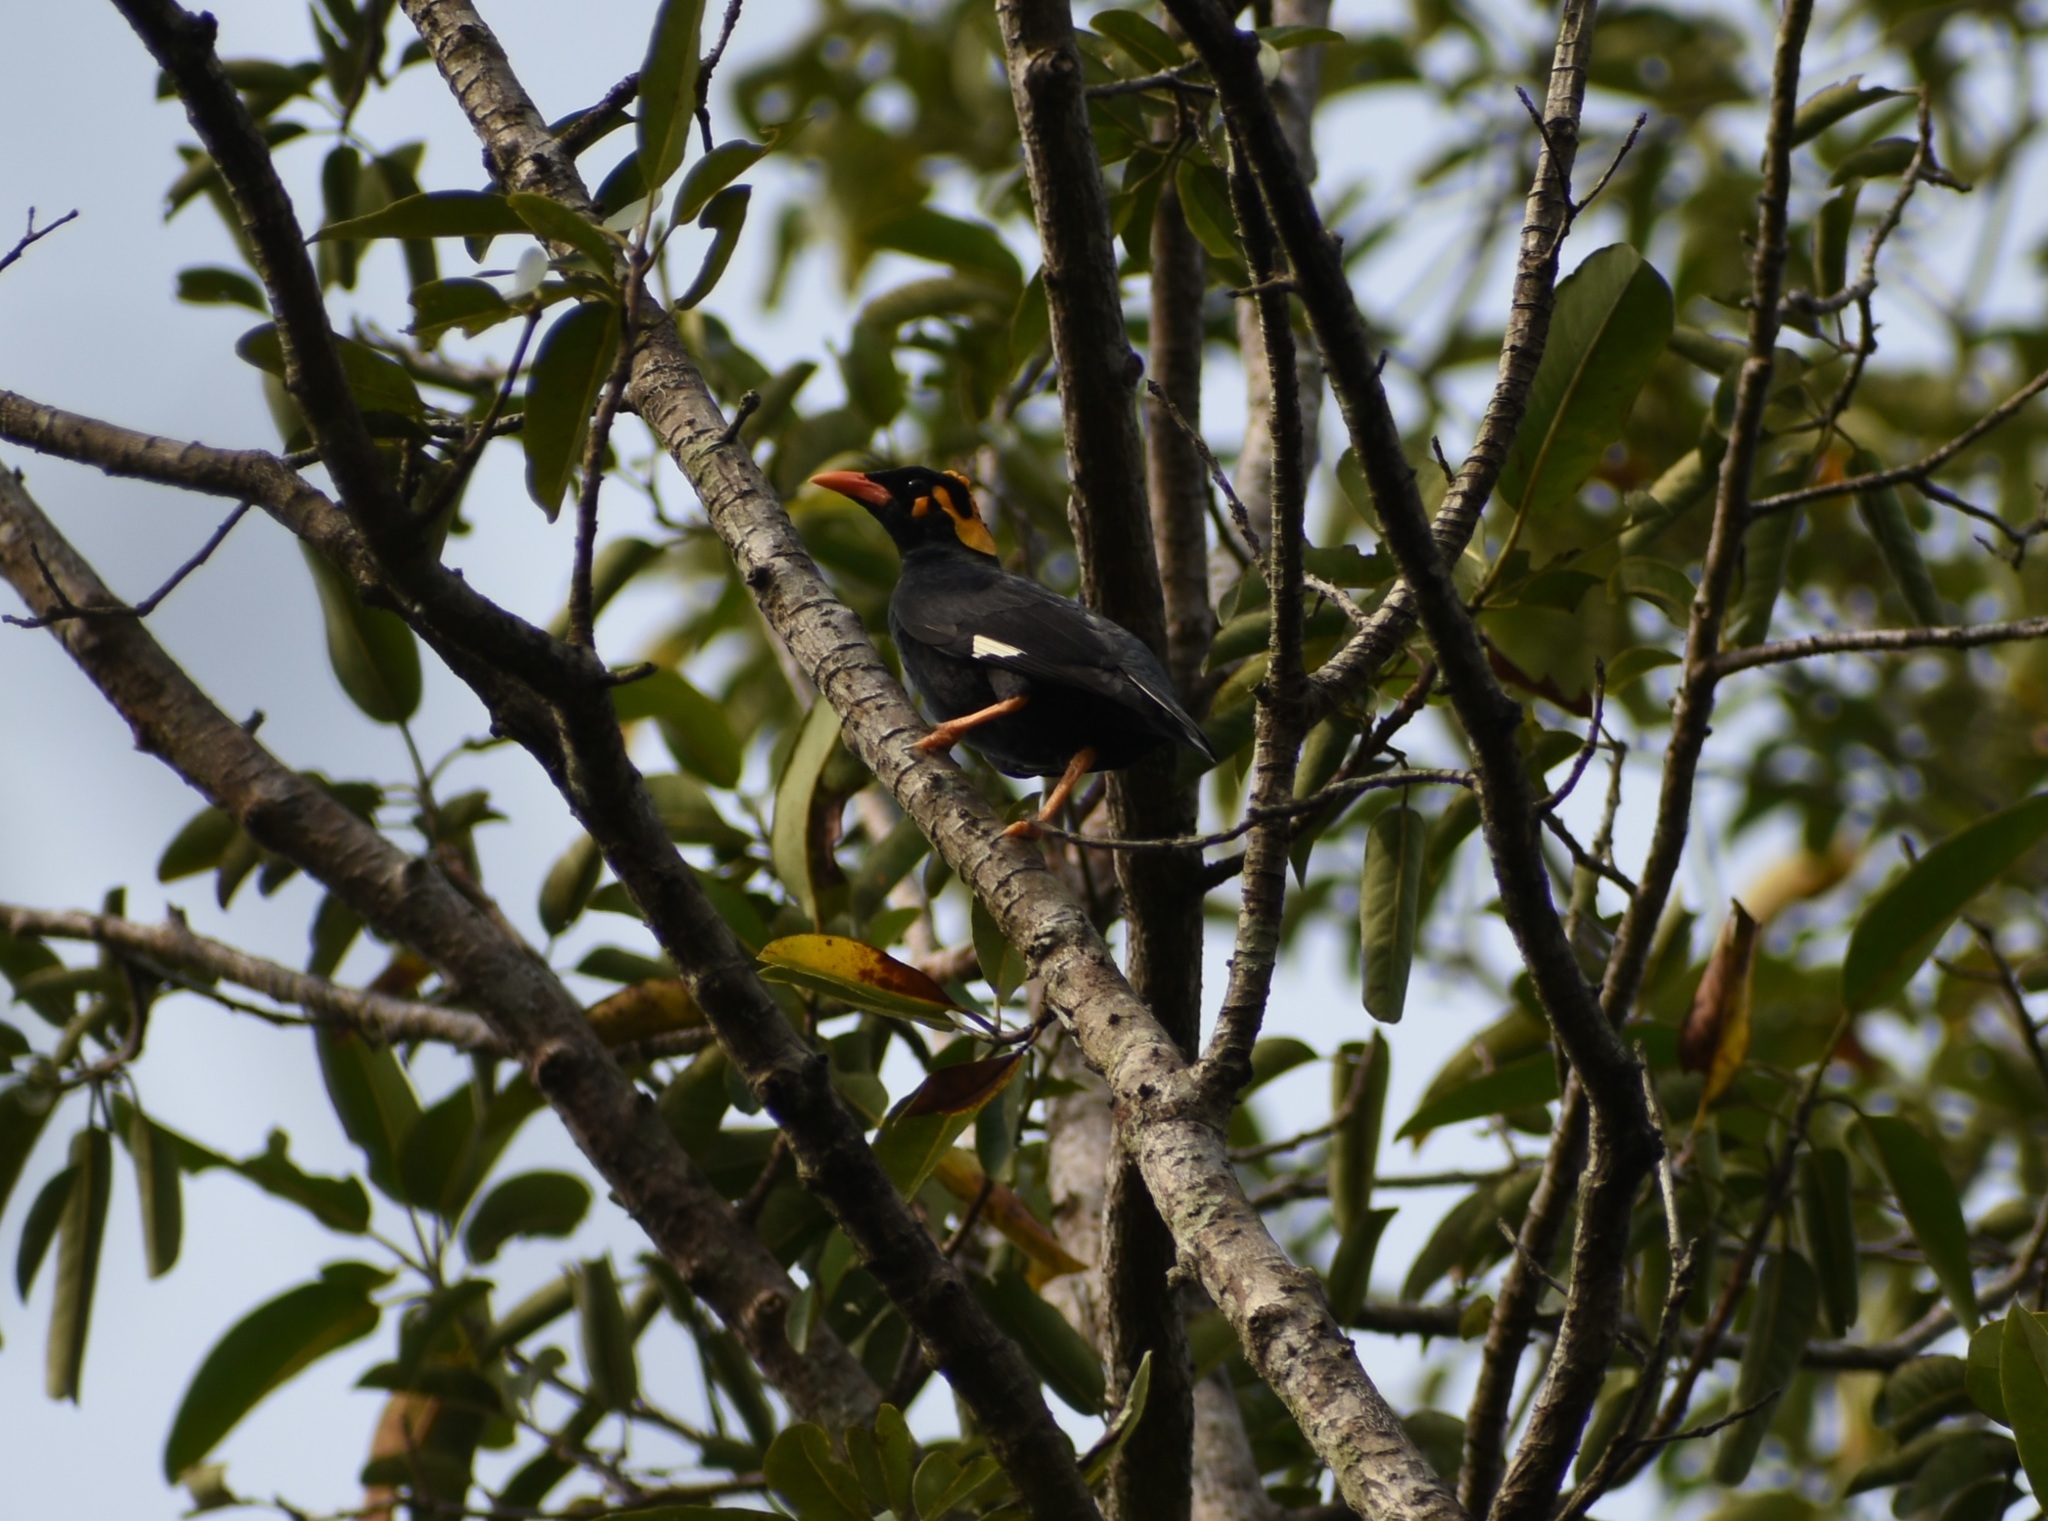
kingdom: Animalia
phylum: Chordata
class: Aves
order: Passeriformes
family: Sturnidae
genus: Gracula
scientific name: Gracula indica
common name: Southern hill myna
